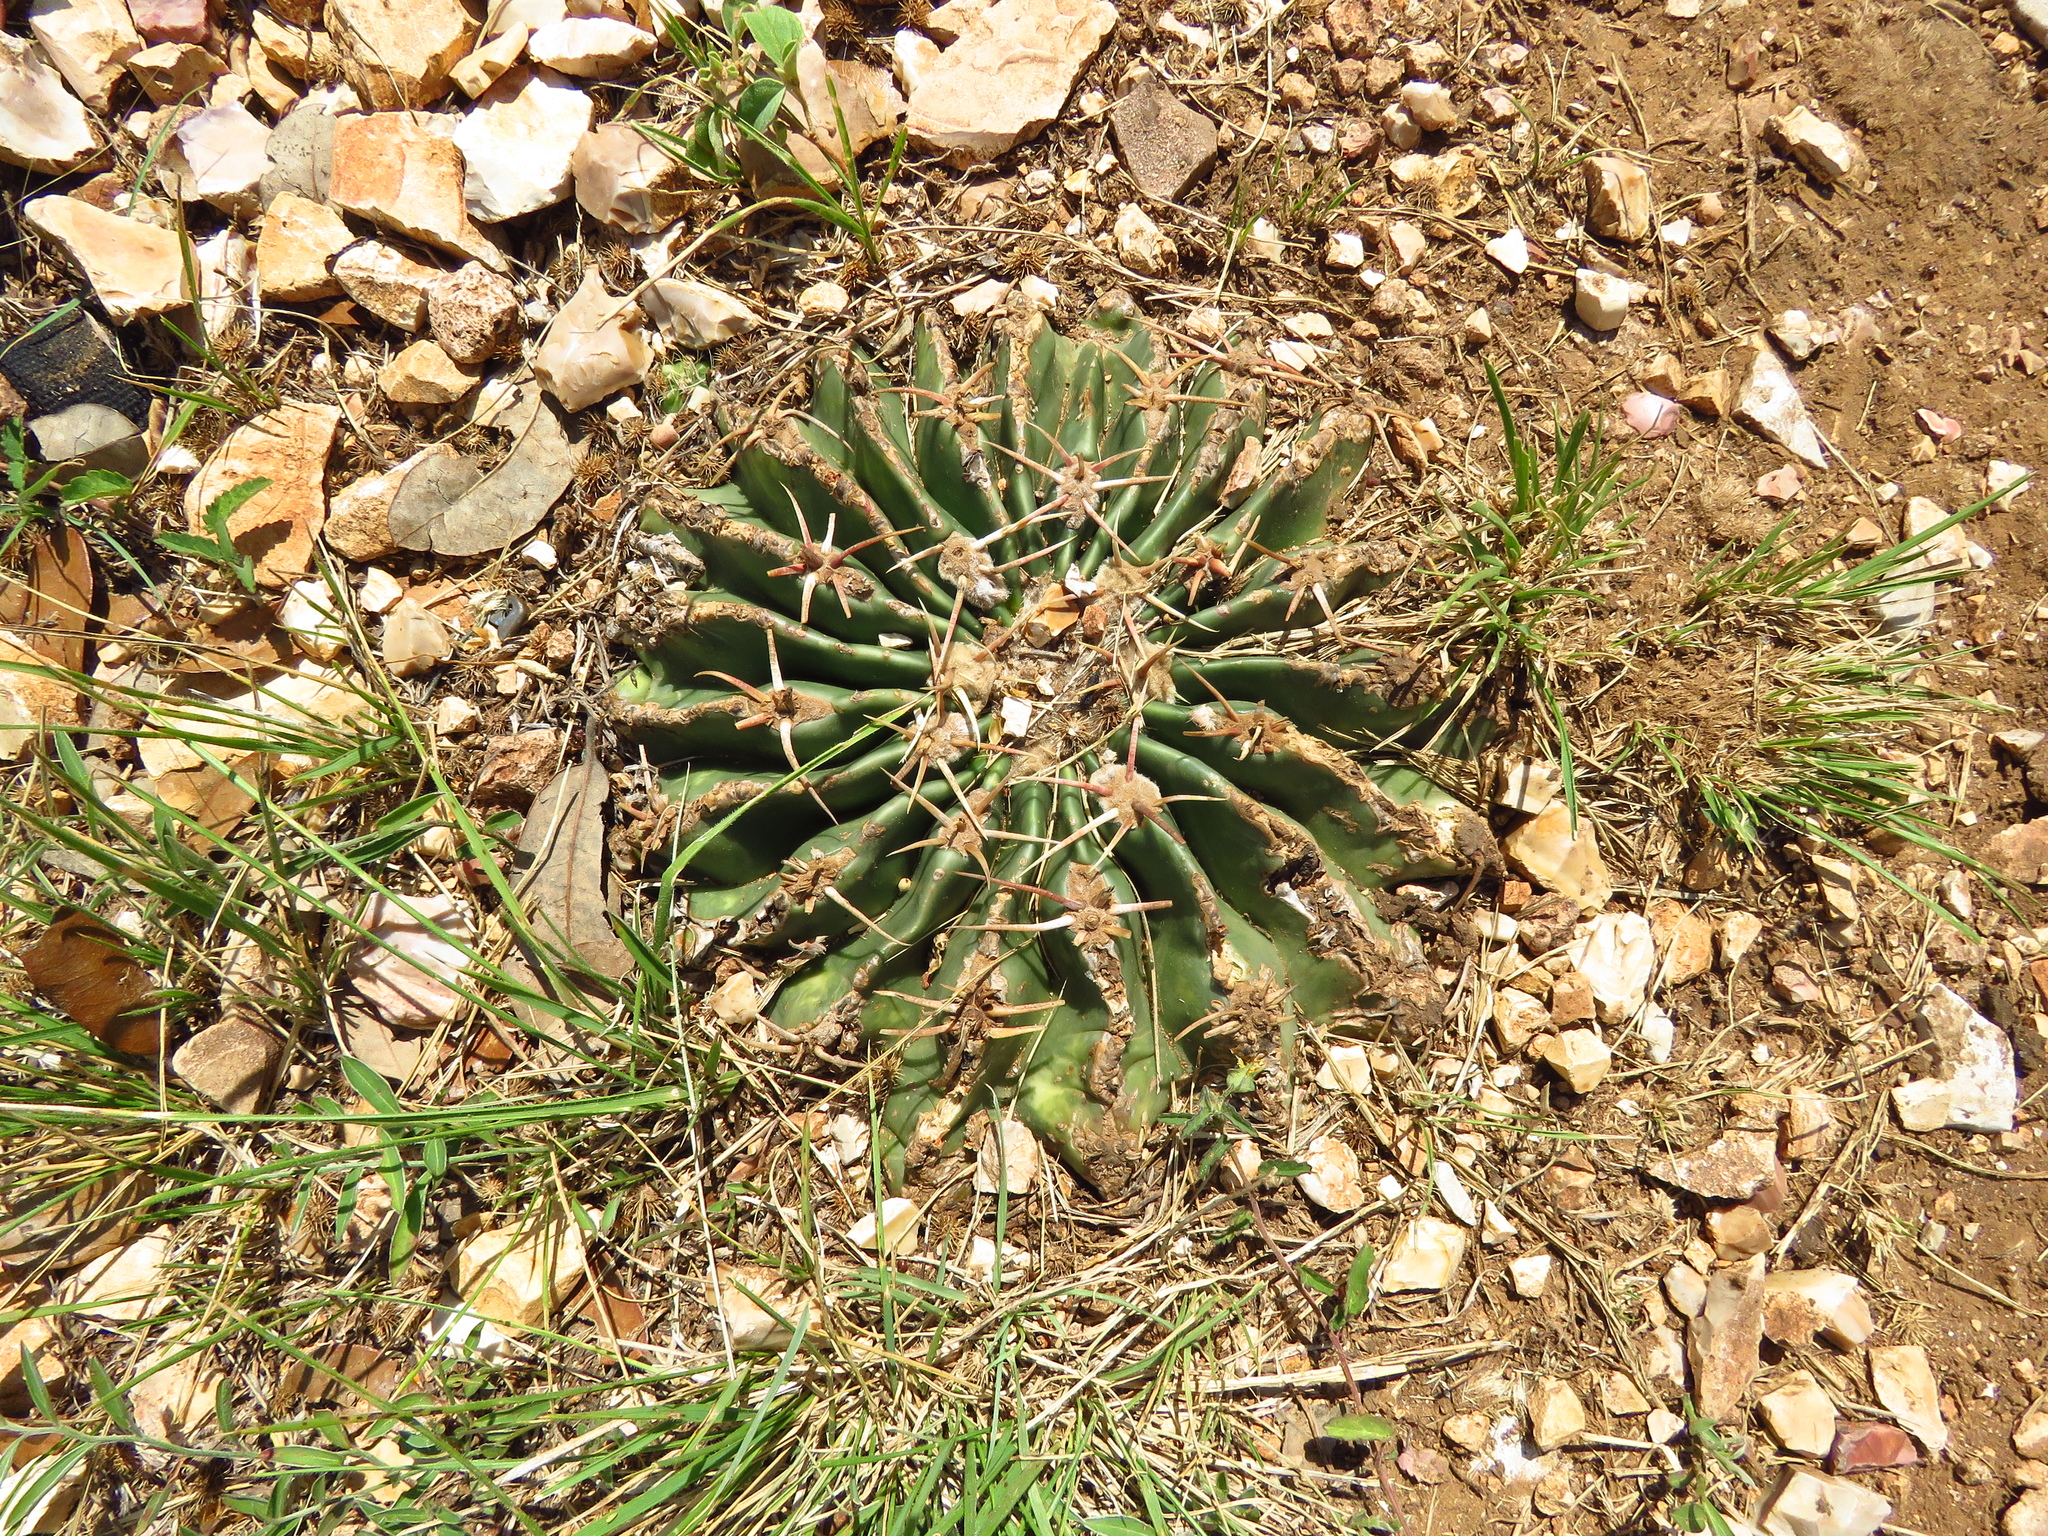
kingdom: Plantae
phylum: Tracheophyta
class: Magnoliopsida
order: Caryophyllales
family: Cactaceae
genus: Echinocactus
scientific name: Echinocactus texensis
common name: Devil's pincushion
